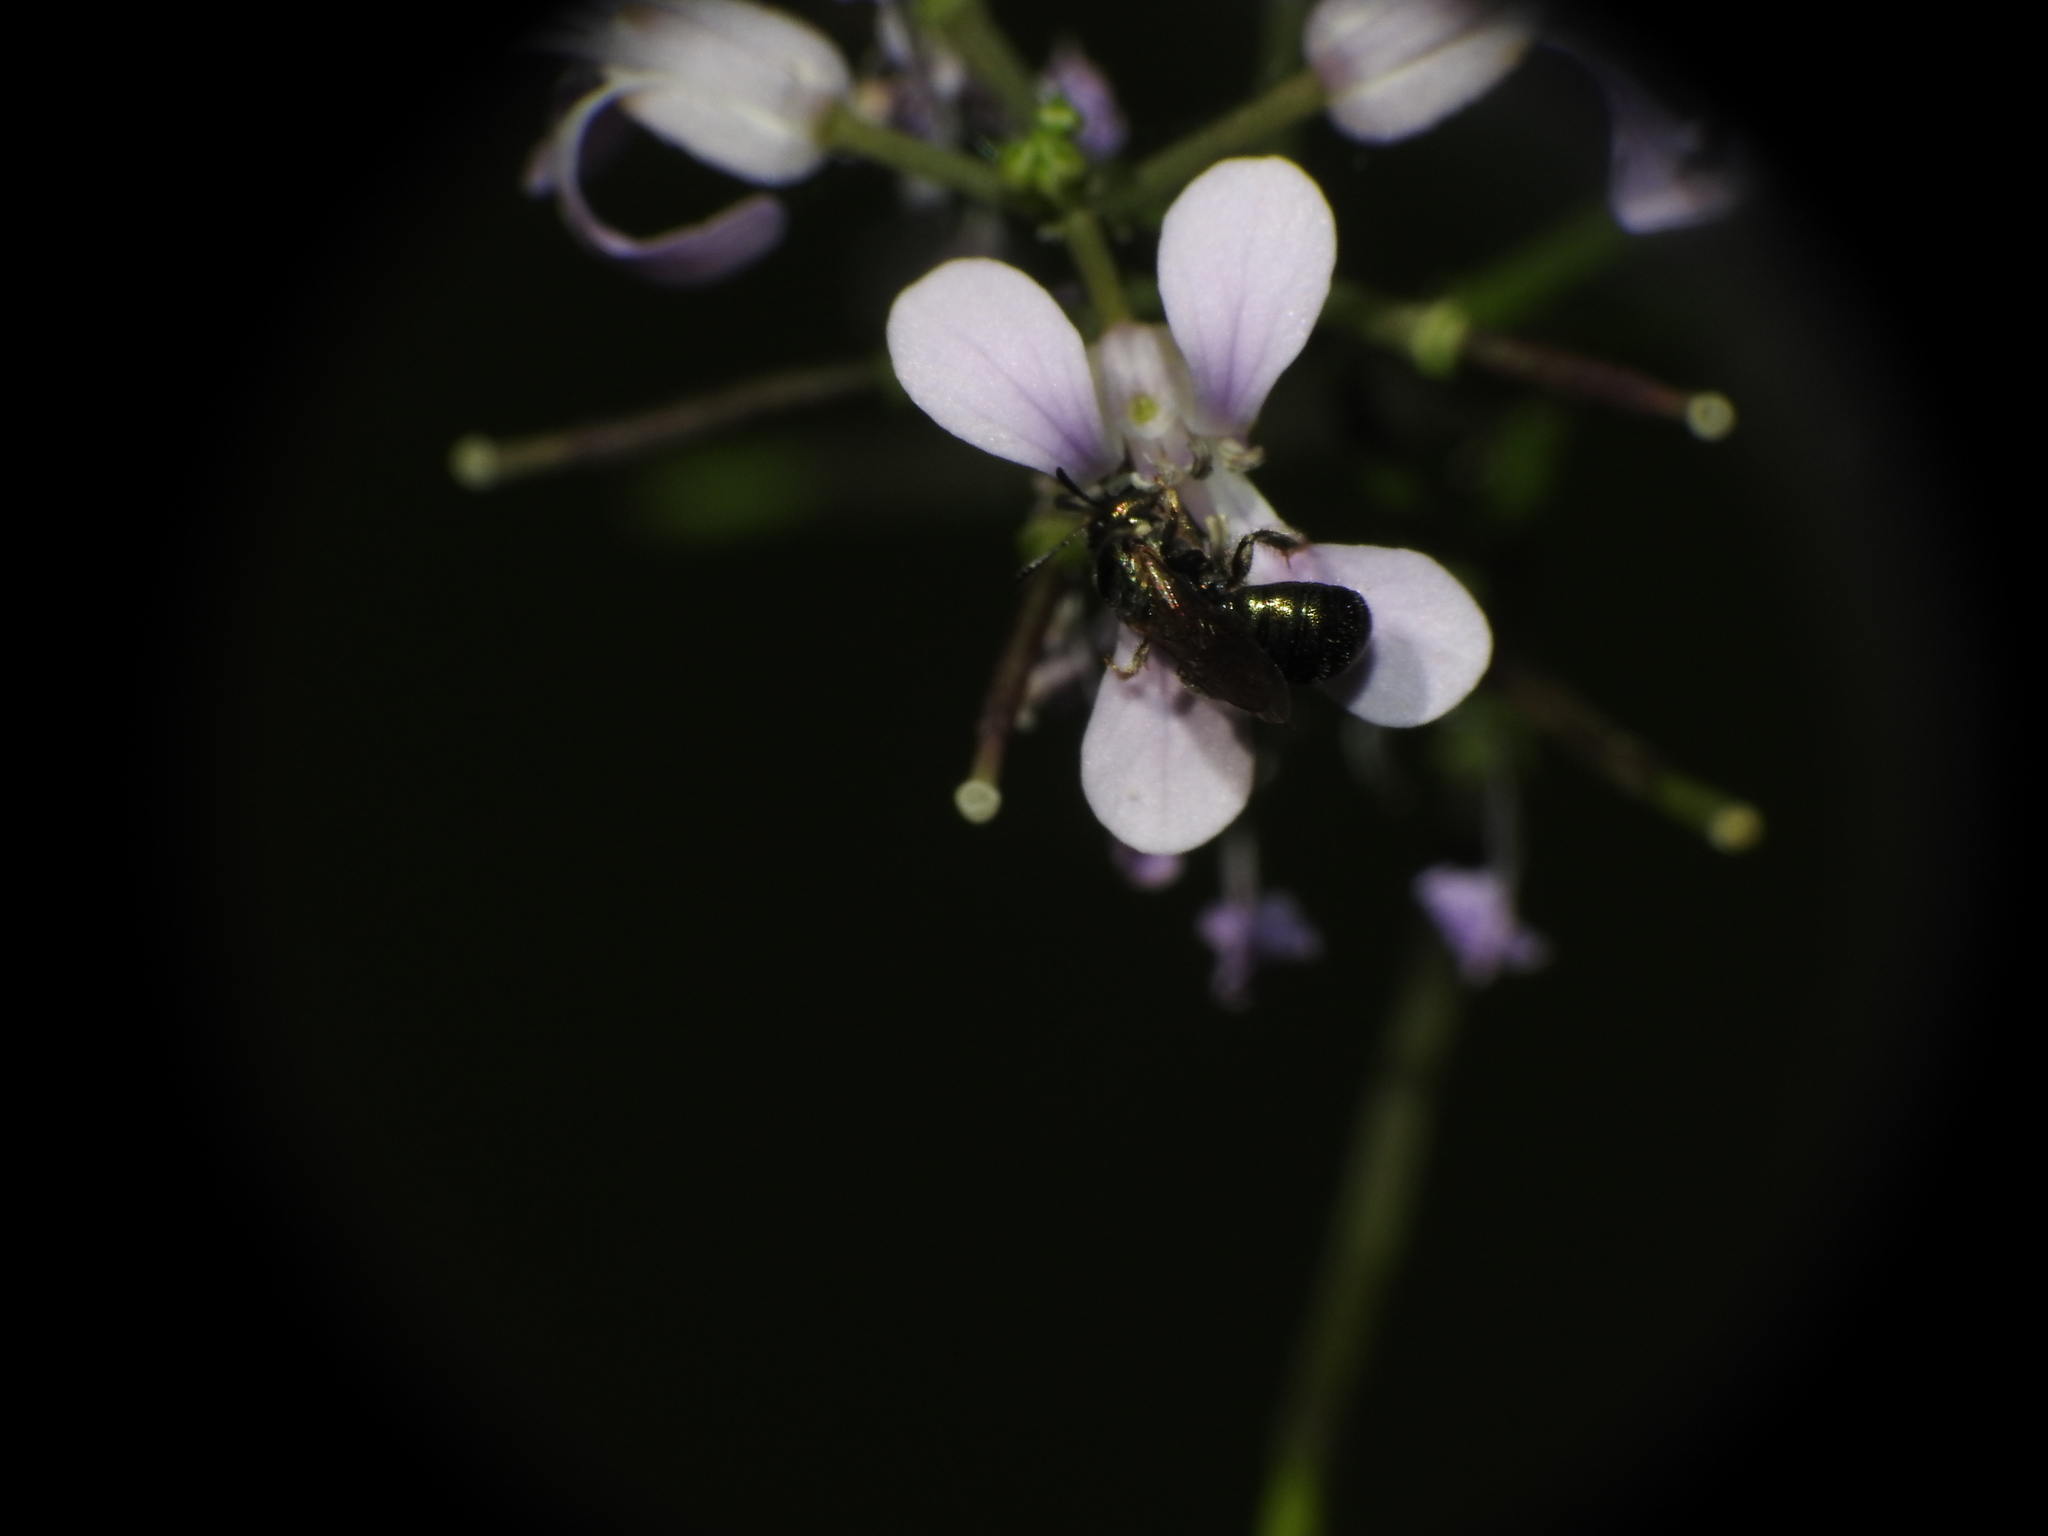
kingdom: Animalia
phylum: Arthropoda
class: Insecta
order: Hymenoptera
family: Apidae
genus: Zadontomerus
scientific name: Zadontomerus
